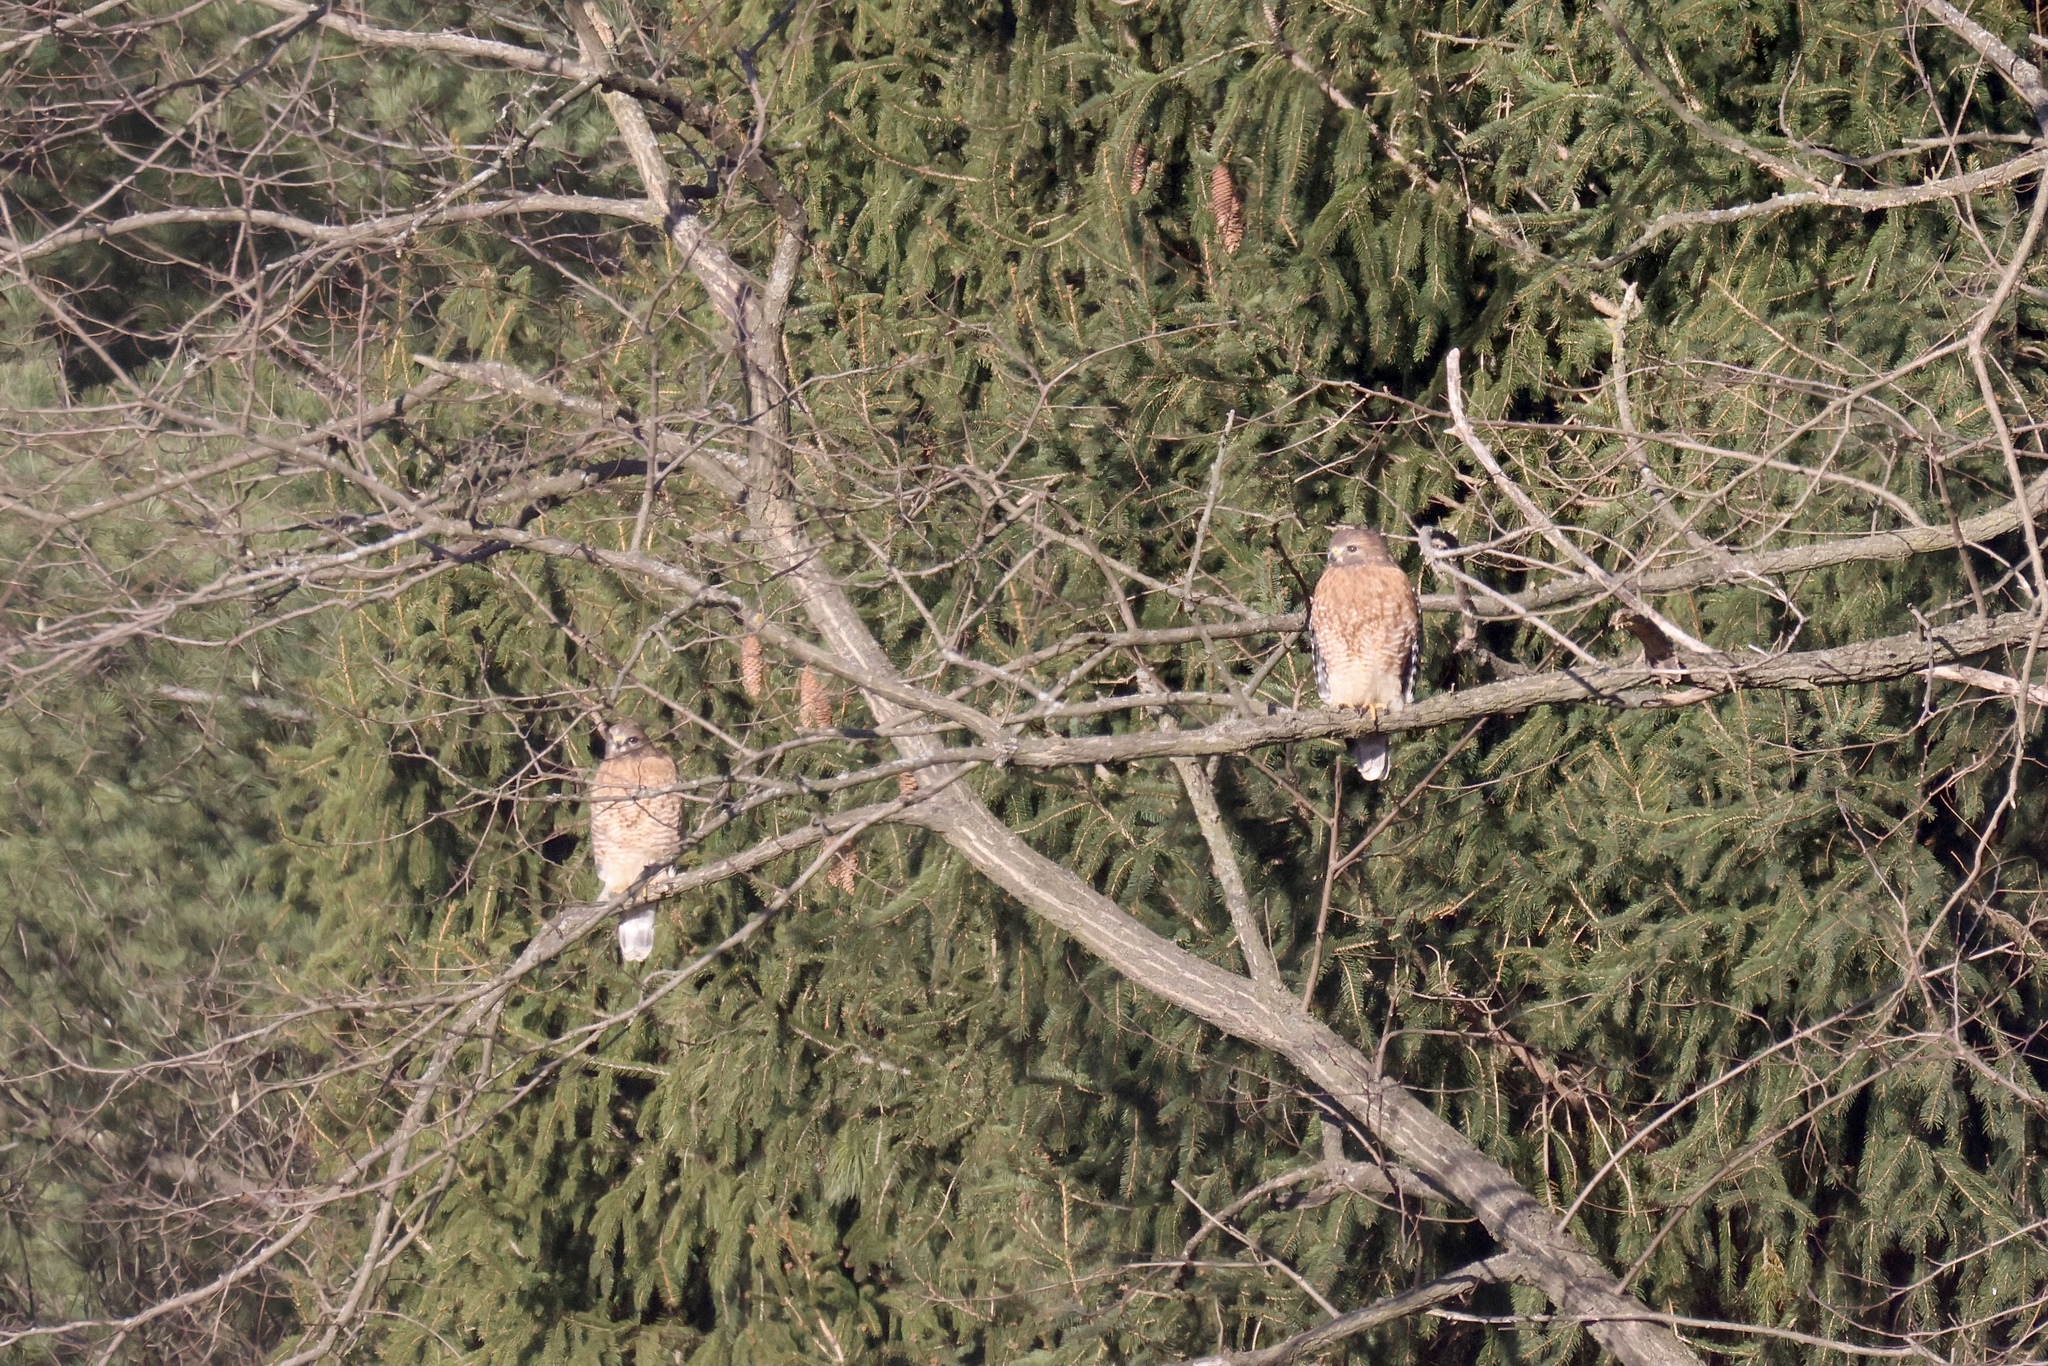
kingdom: Animalia
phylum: Chordata
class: Aves
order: Accipitriformes
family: Accipitridae
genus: Buteo
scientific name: Buteo lineatus
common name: Red-shouldered hawk
